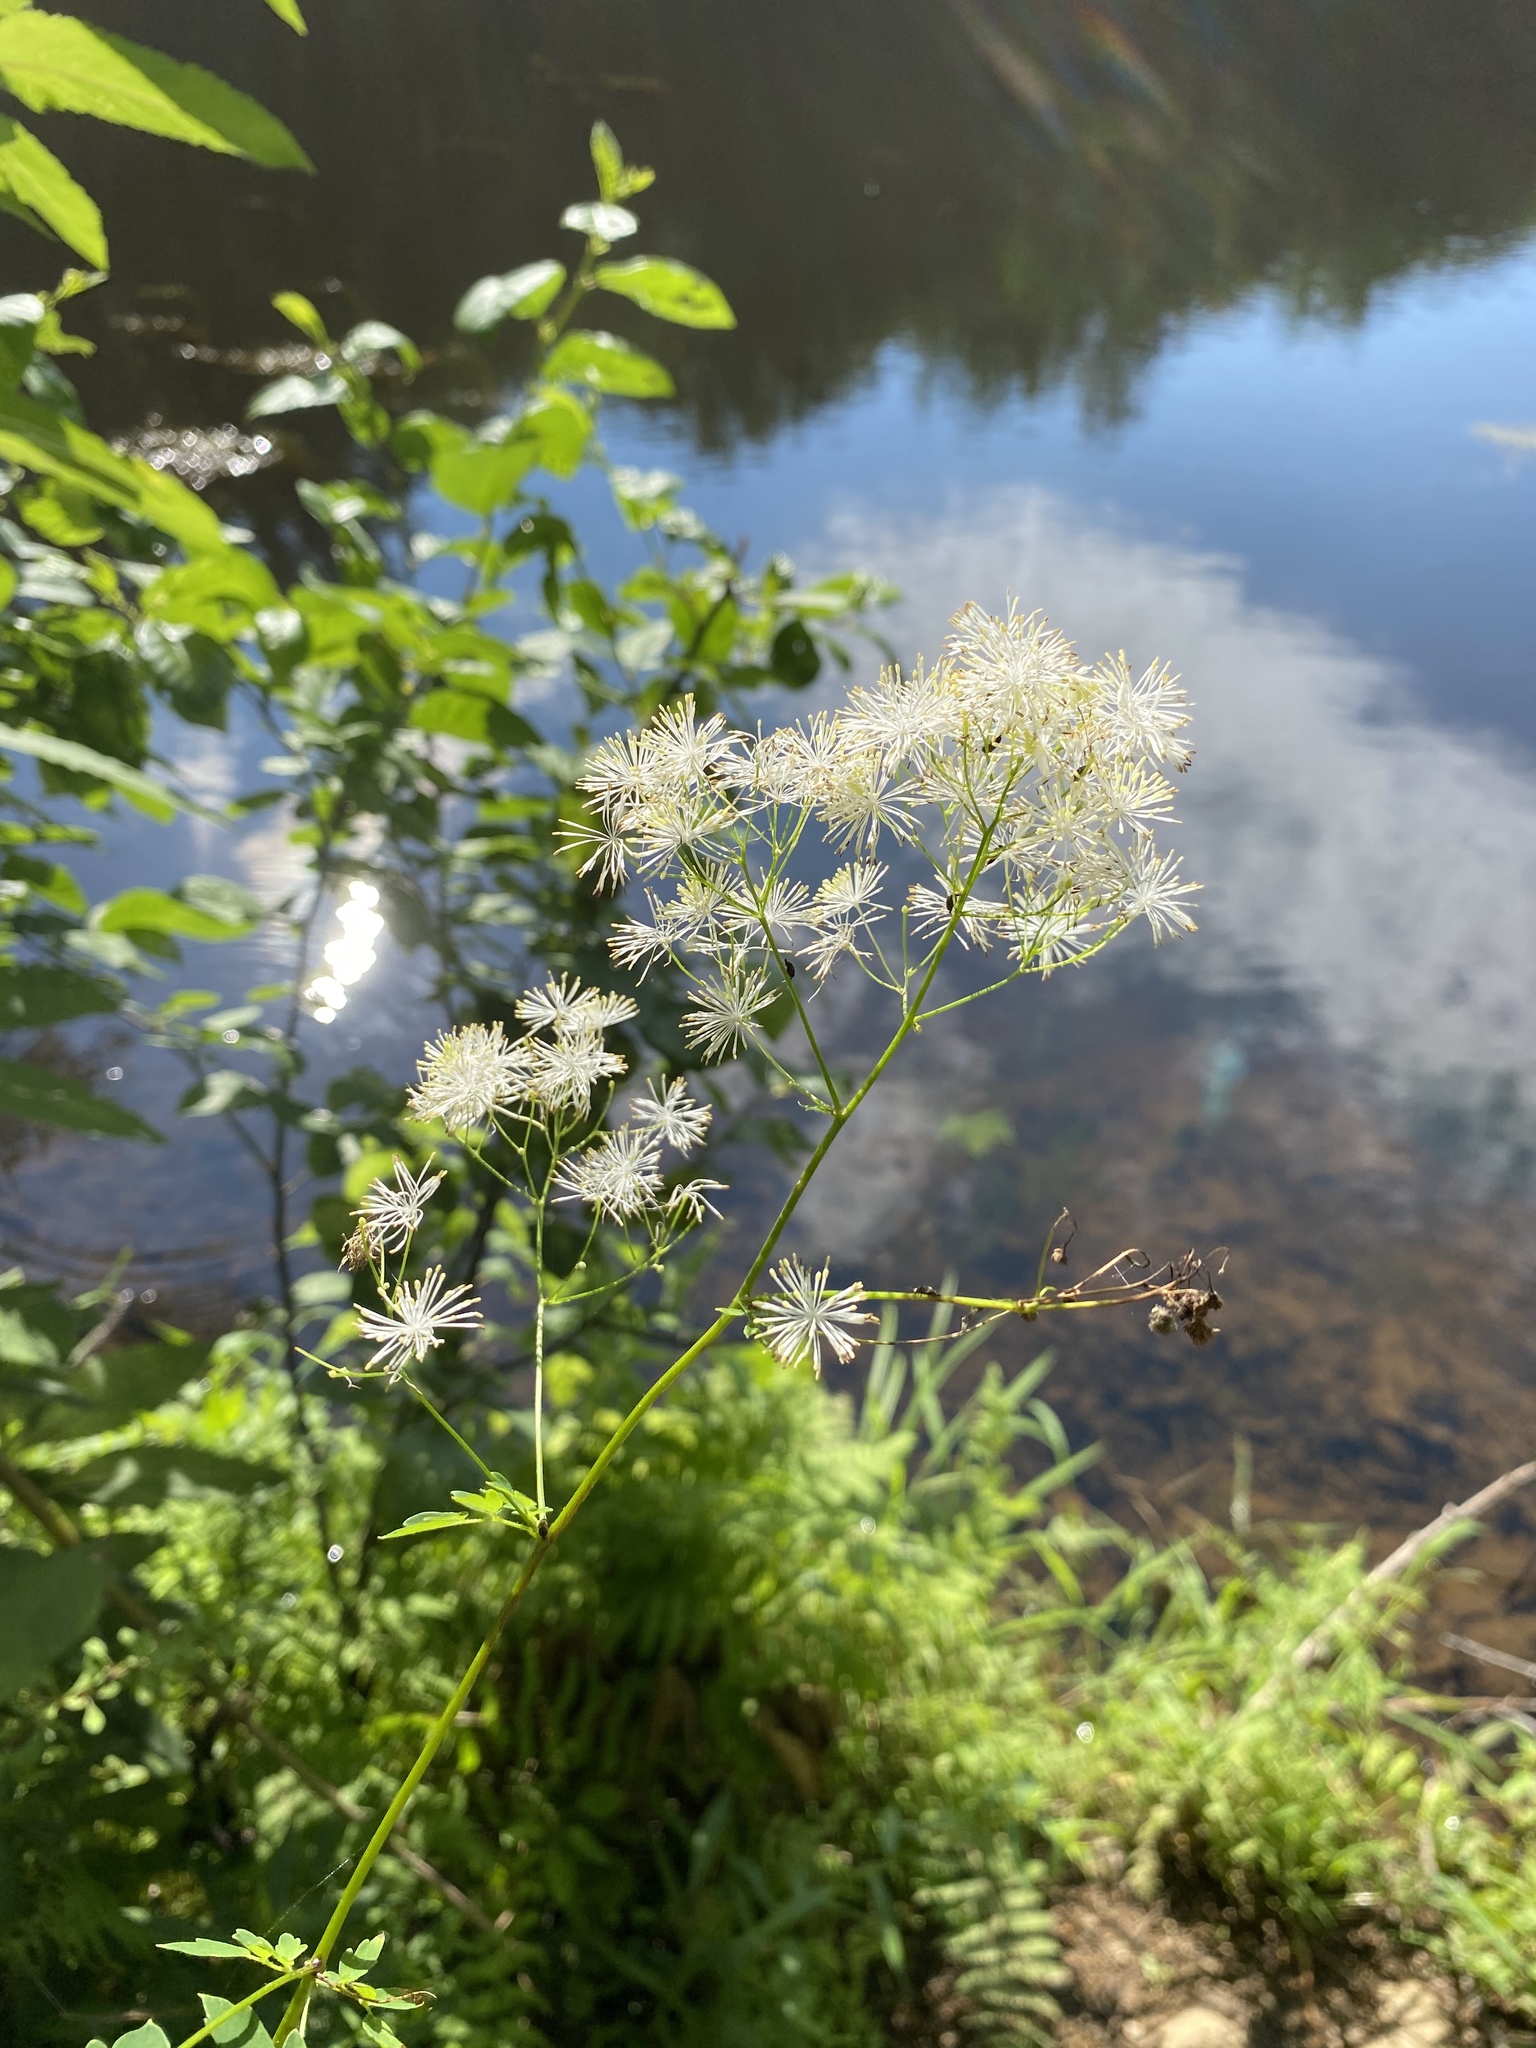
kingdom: Plantae
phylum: Tracheophyta
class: Magnoliopsida
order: Ranunculales
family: Ranunculaceae
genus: Thalictrum
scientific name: Thalictrum pubescens
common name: King-of-the-meadow
